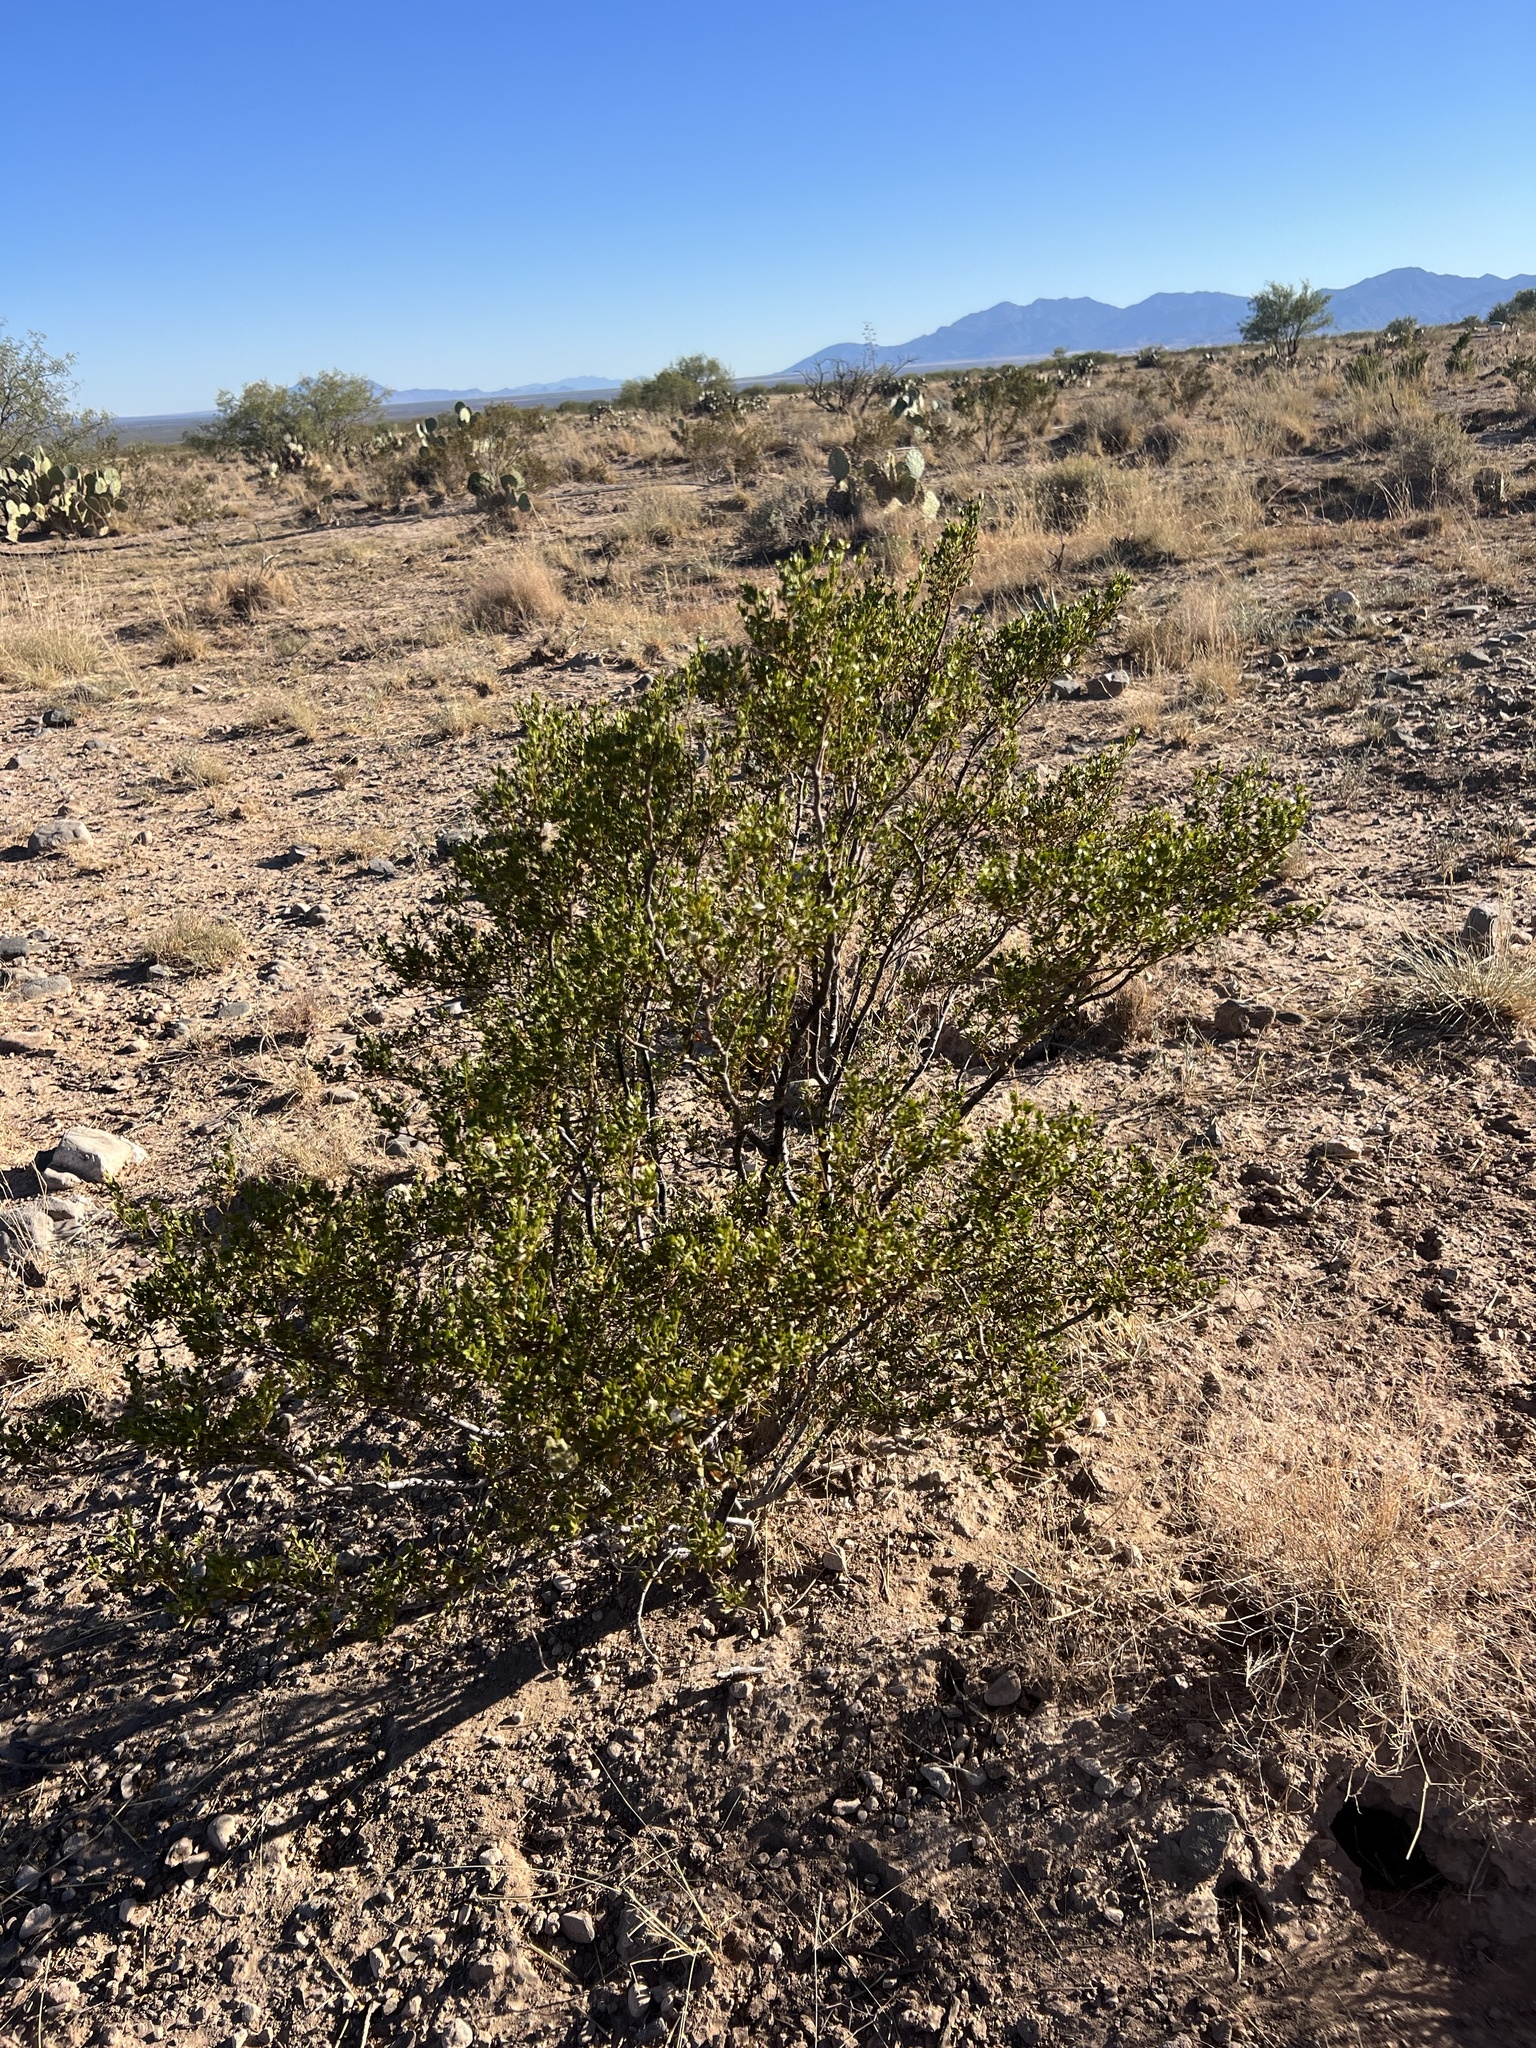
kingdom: Plantae
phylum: Tracheophyta
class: Magnoliopsida
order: Zygophyllales
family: Zygophyllaceae
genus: Larrea
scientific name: Larrea tridentata
